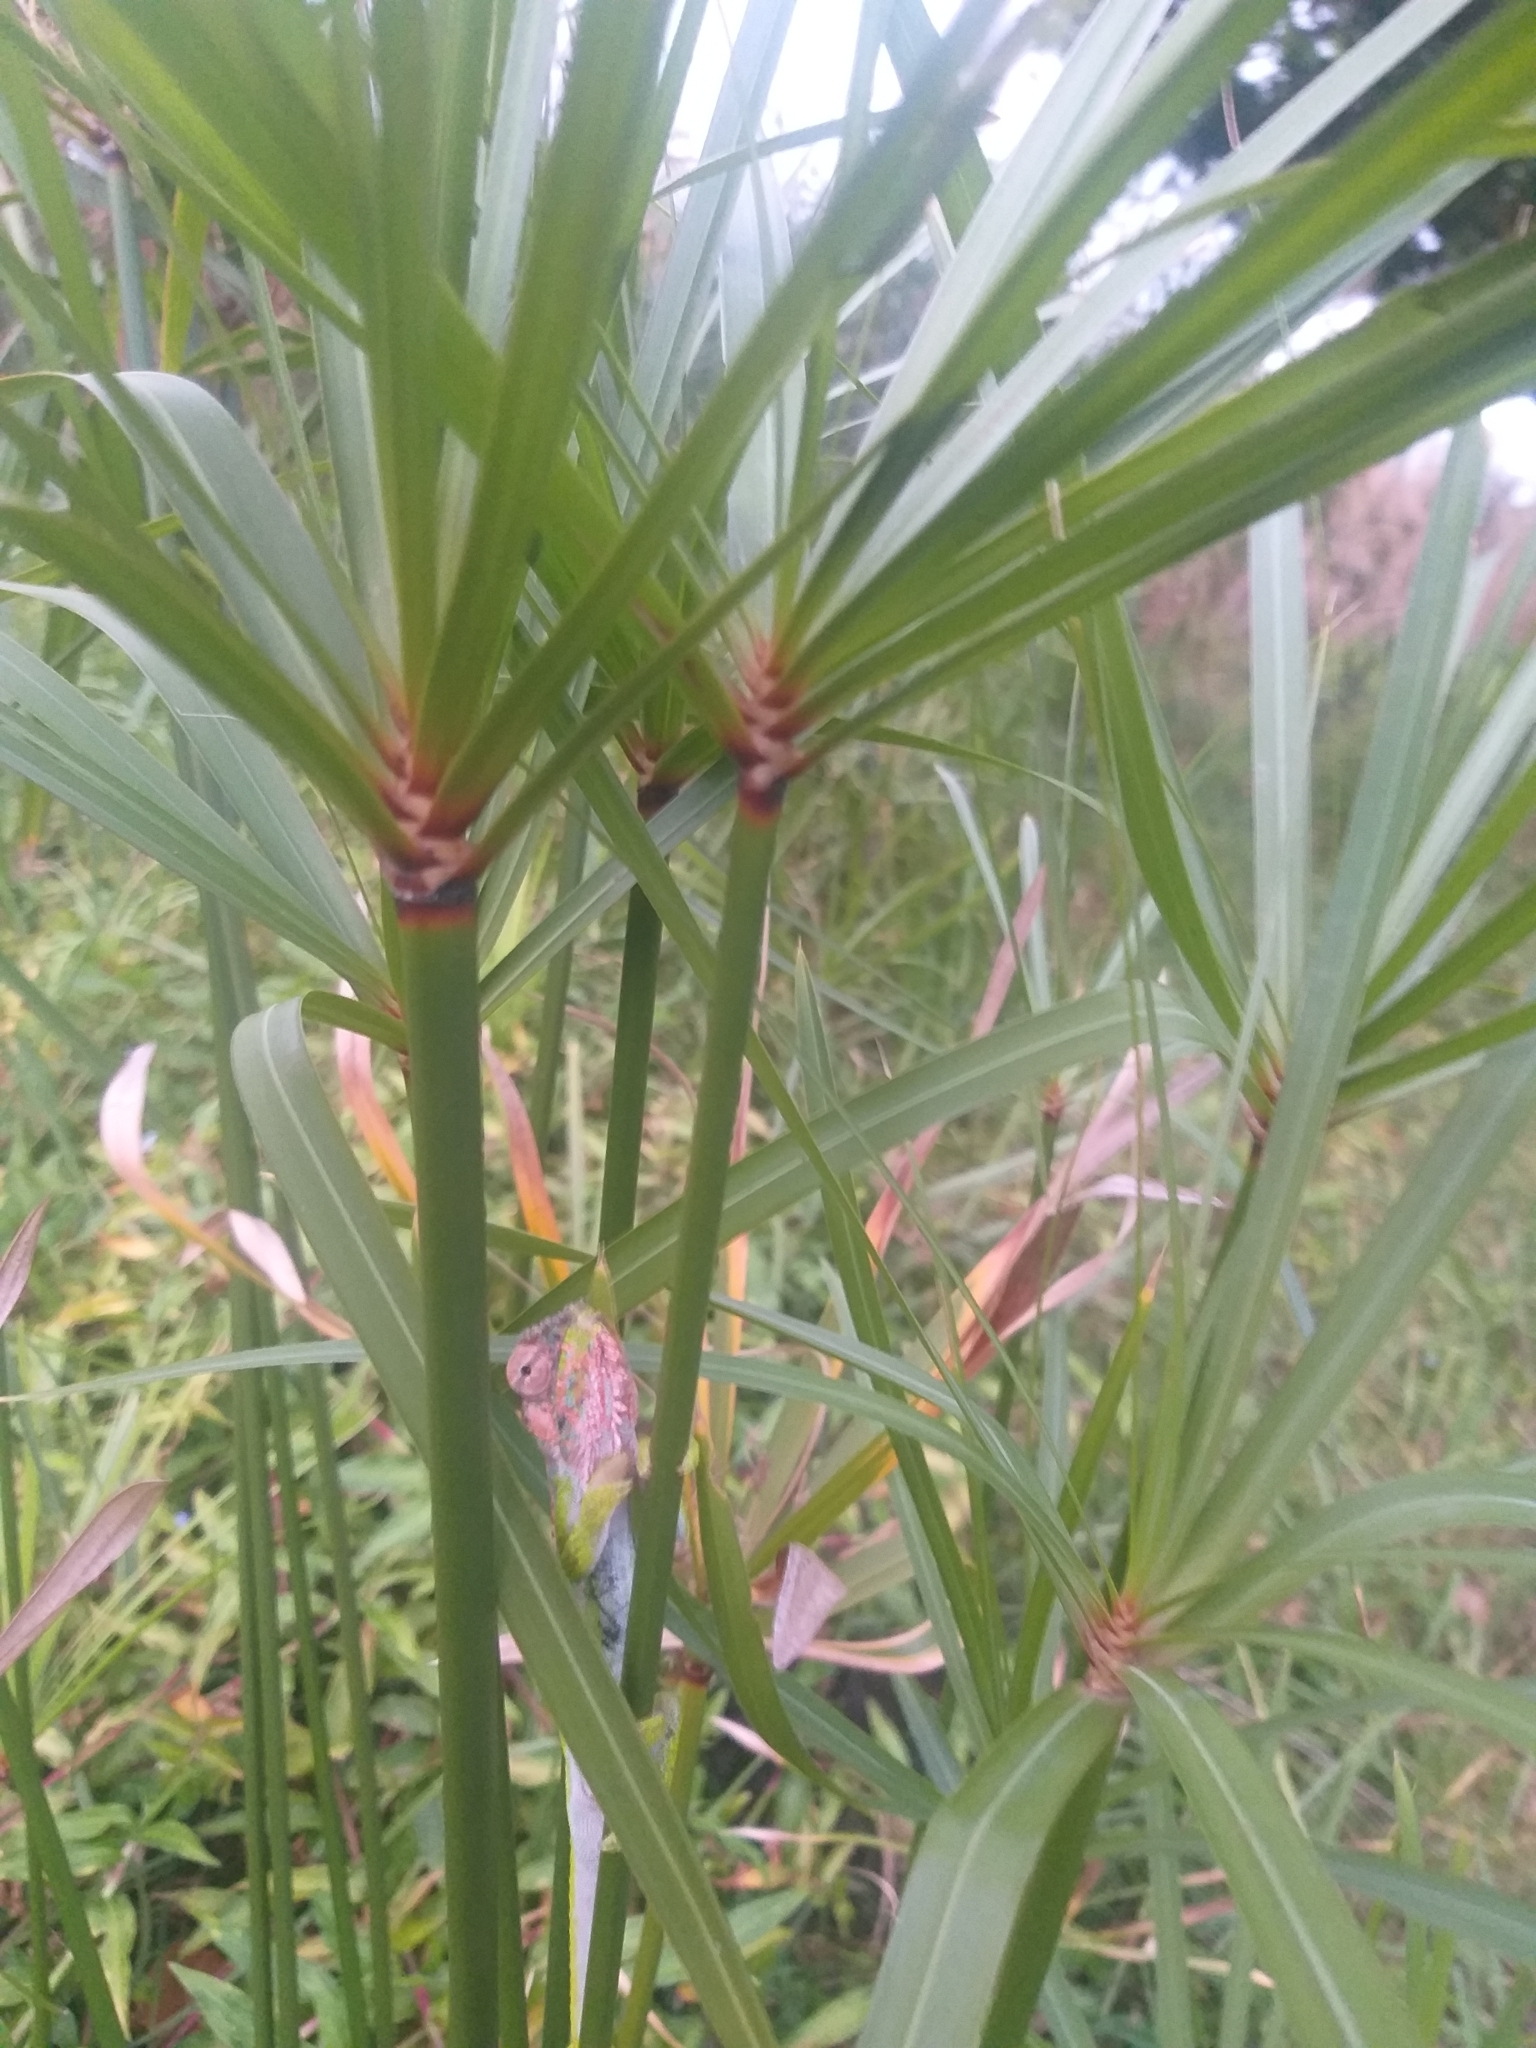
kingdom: Animalia
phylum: Chordata
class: Squamata
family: Chamaeleonidae
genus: Bradypodion
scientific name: Bradypodion pumilum
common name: Cape dwarf chameleon
